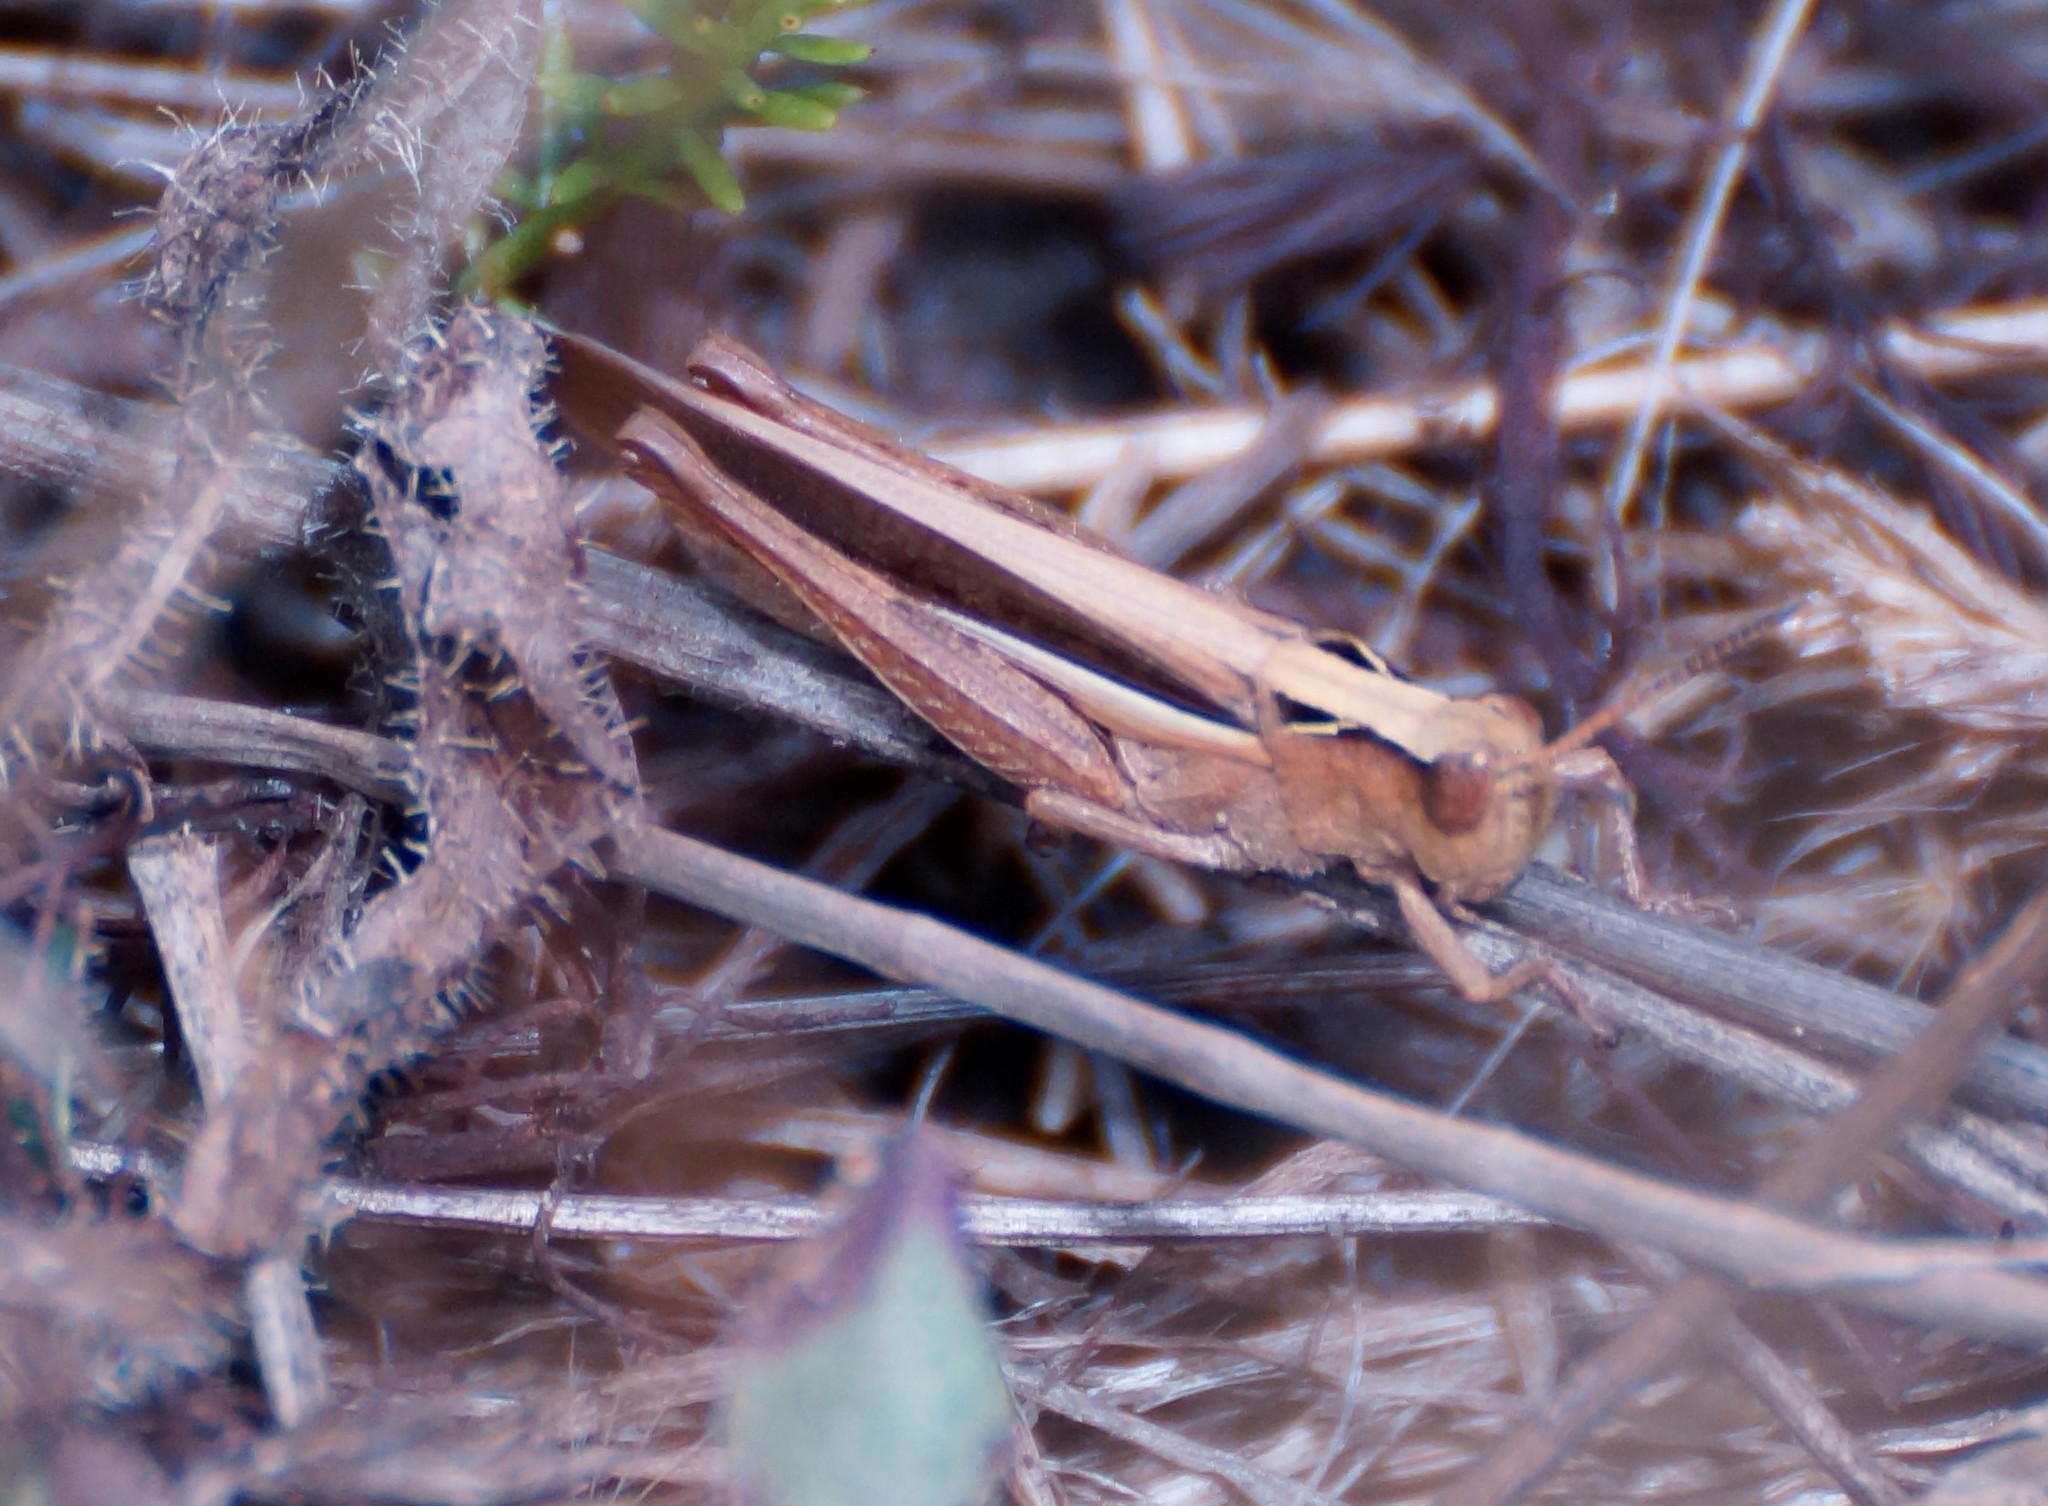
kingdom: Animalia
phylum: Arthropoda
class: Insecta
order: Orthoptera
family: Acrididae
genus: Schizobothrus
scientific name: Schizobothrus flavovittatus
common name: Disappearing grasshopper
